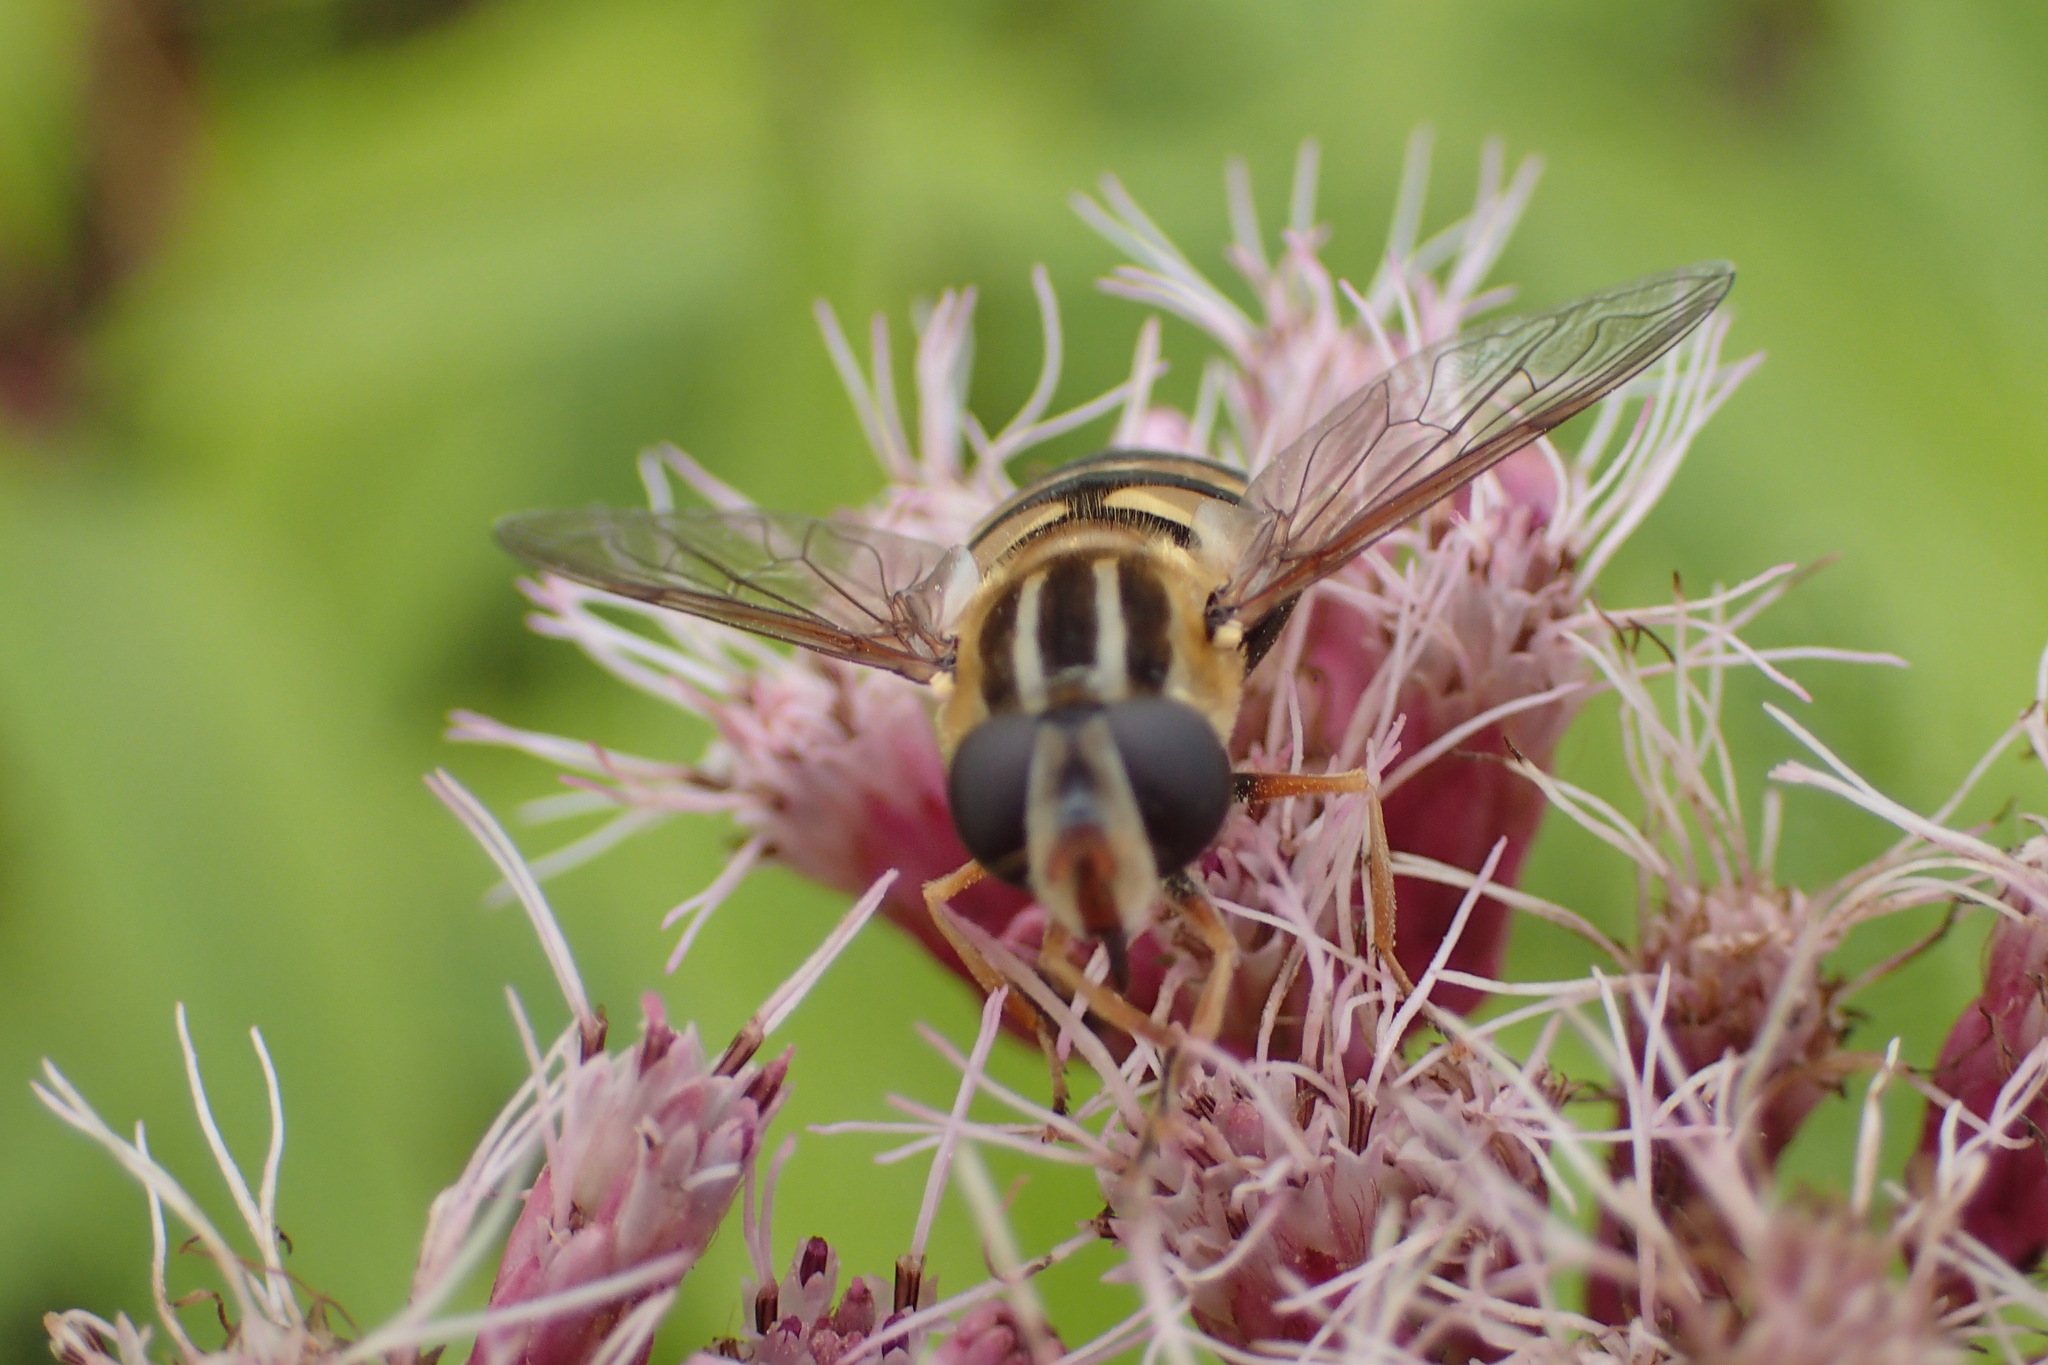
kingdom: Animalia
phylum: Arthropoda
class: Insecta
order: Diptera
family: Syrphidae
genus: Helophilus
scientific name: Helophilus fasciatus
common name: Narrow-headed marsh fly
